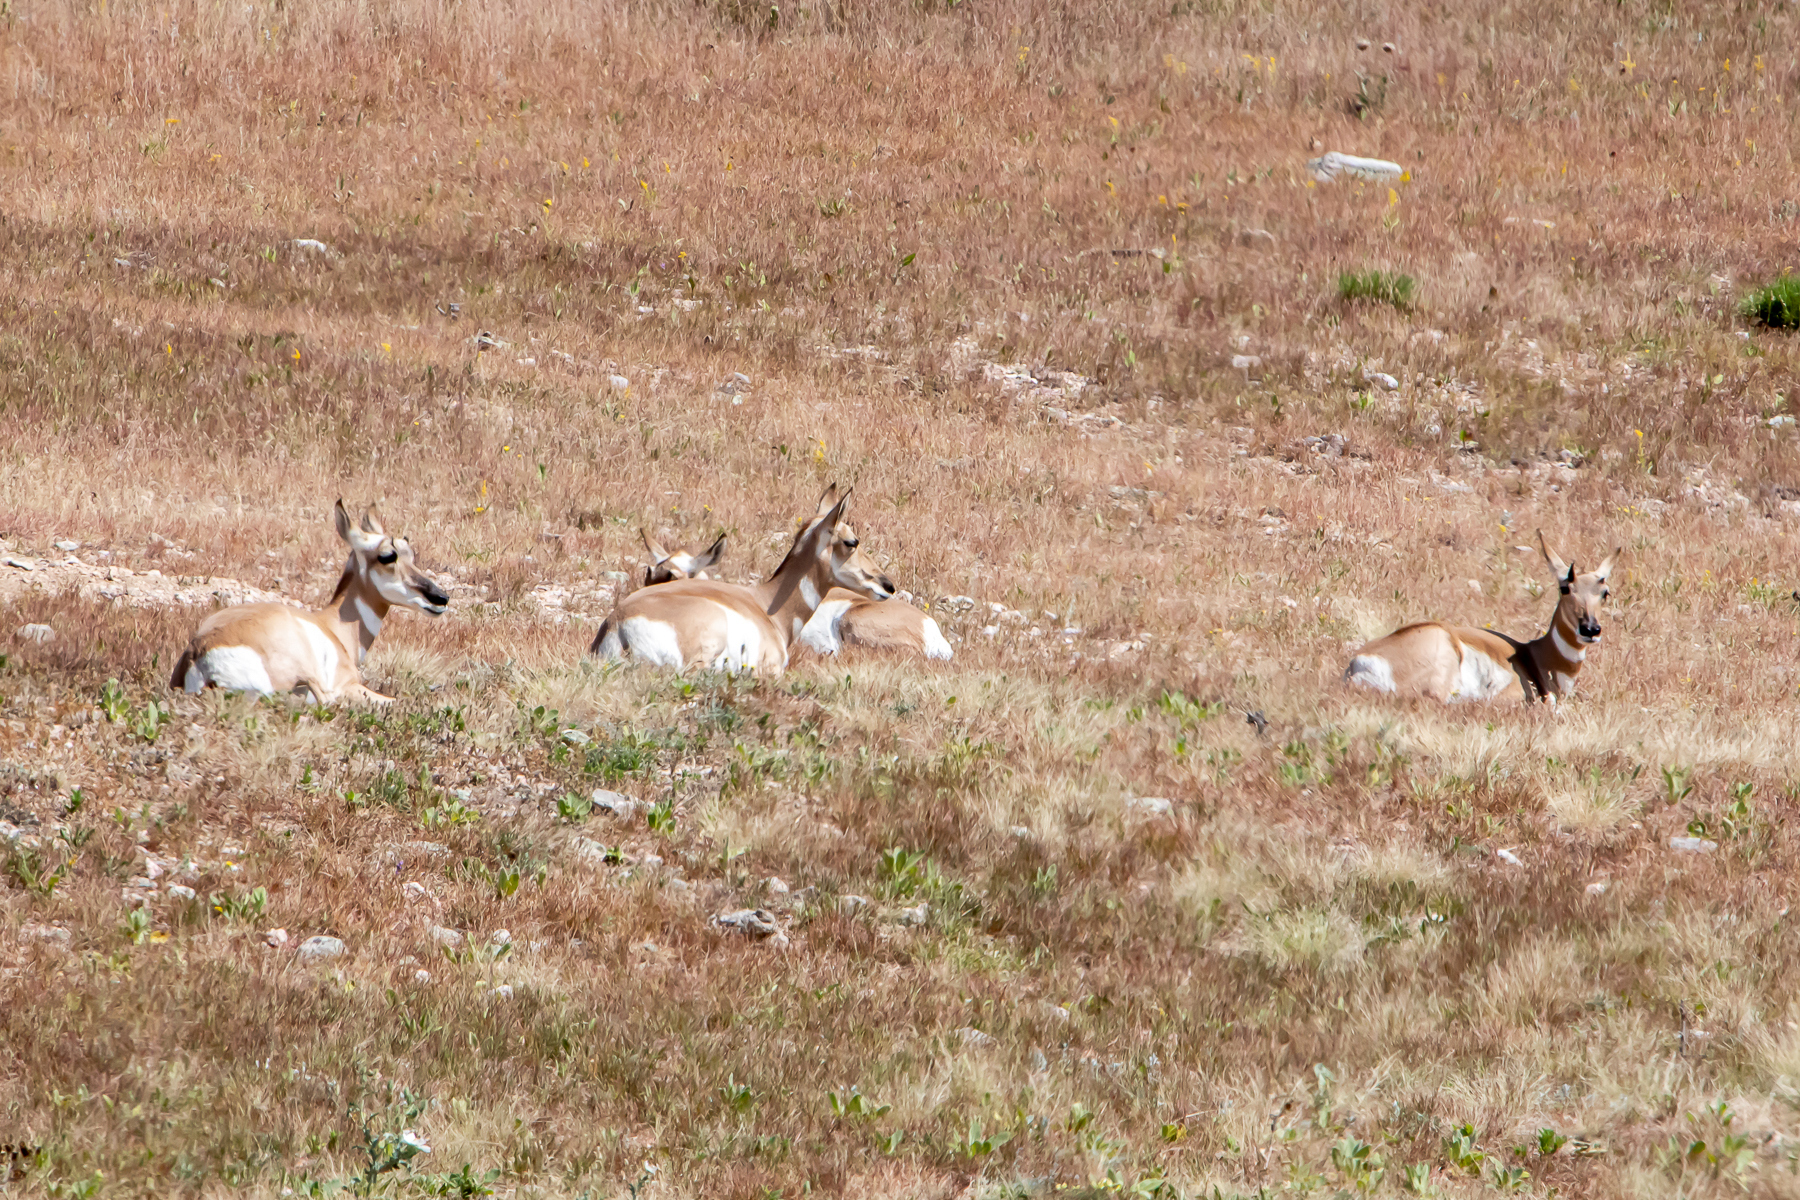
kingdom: Animalia
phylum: Chordata
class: Mammalia
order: Artiodactyla
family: Antilocapridae
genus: Antilocapra
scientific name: Antilocapra americana
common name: Pronghorn
